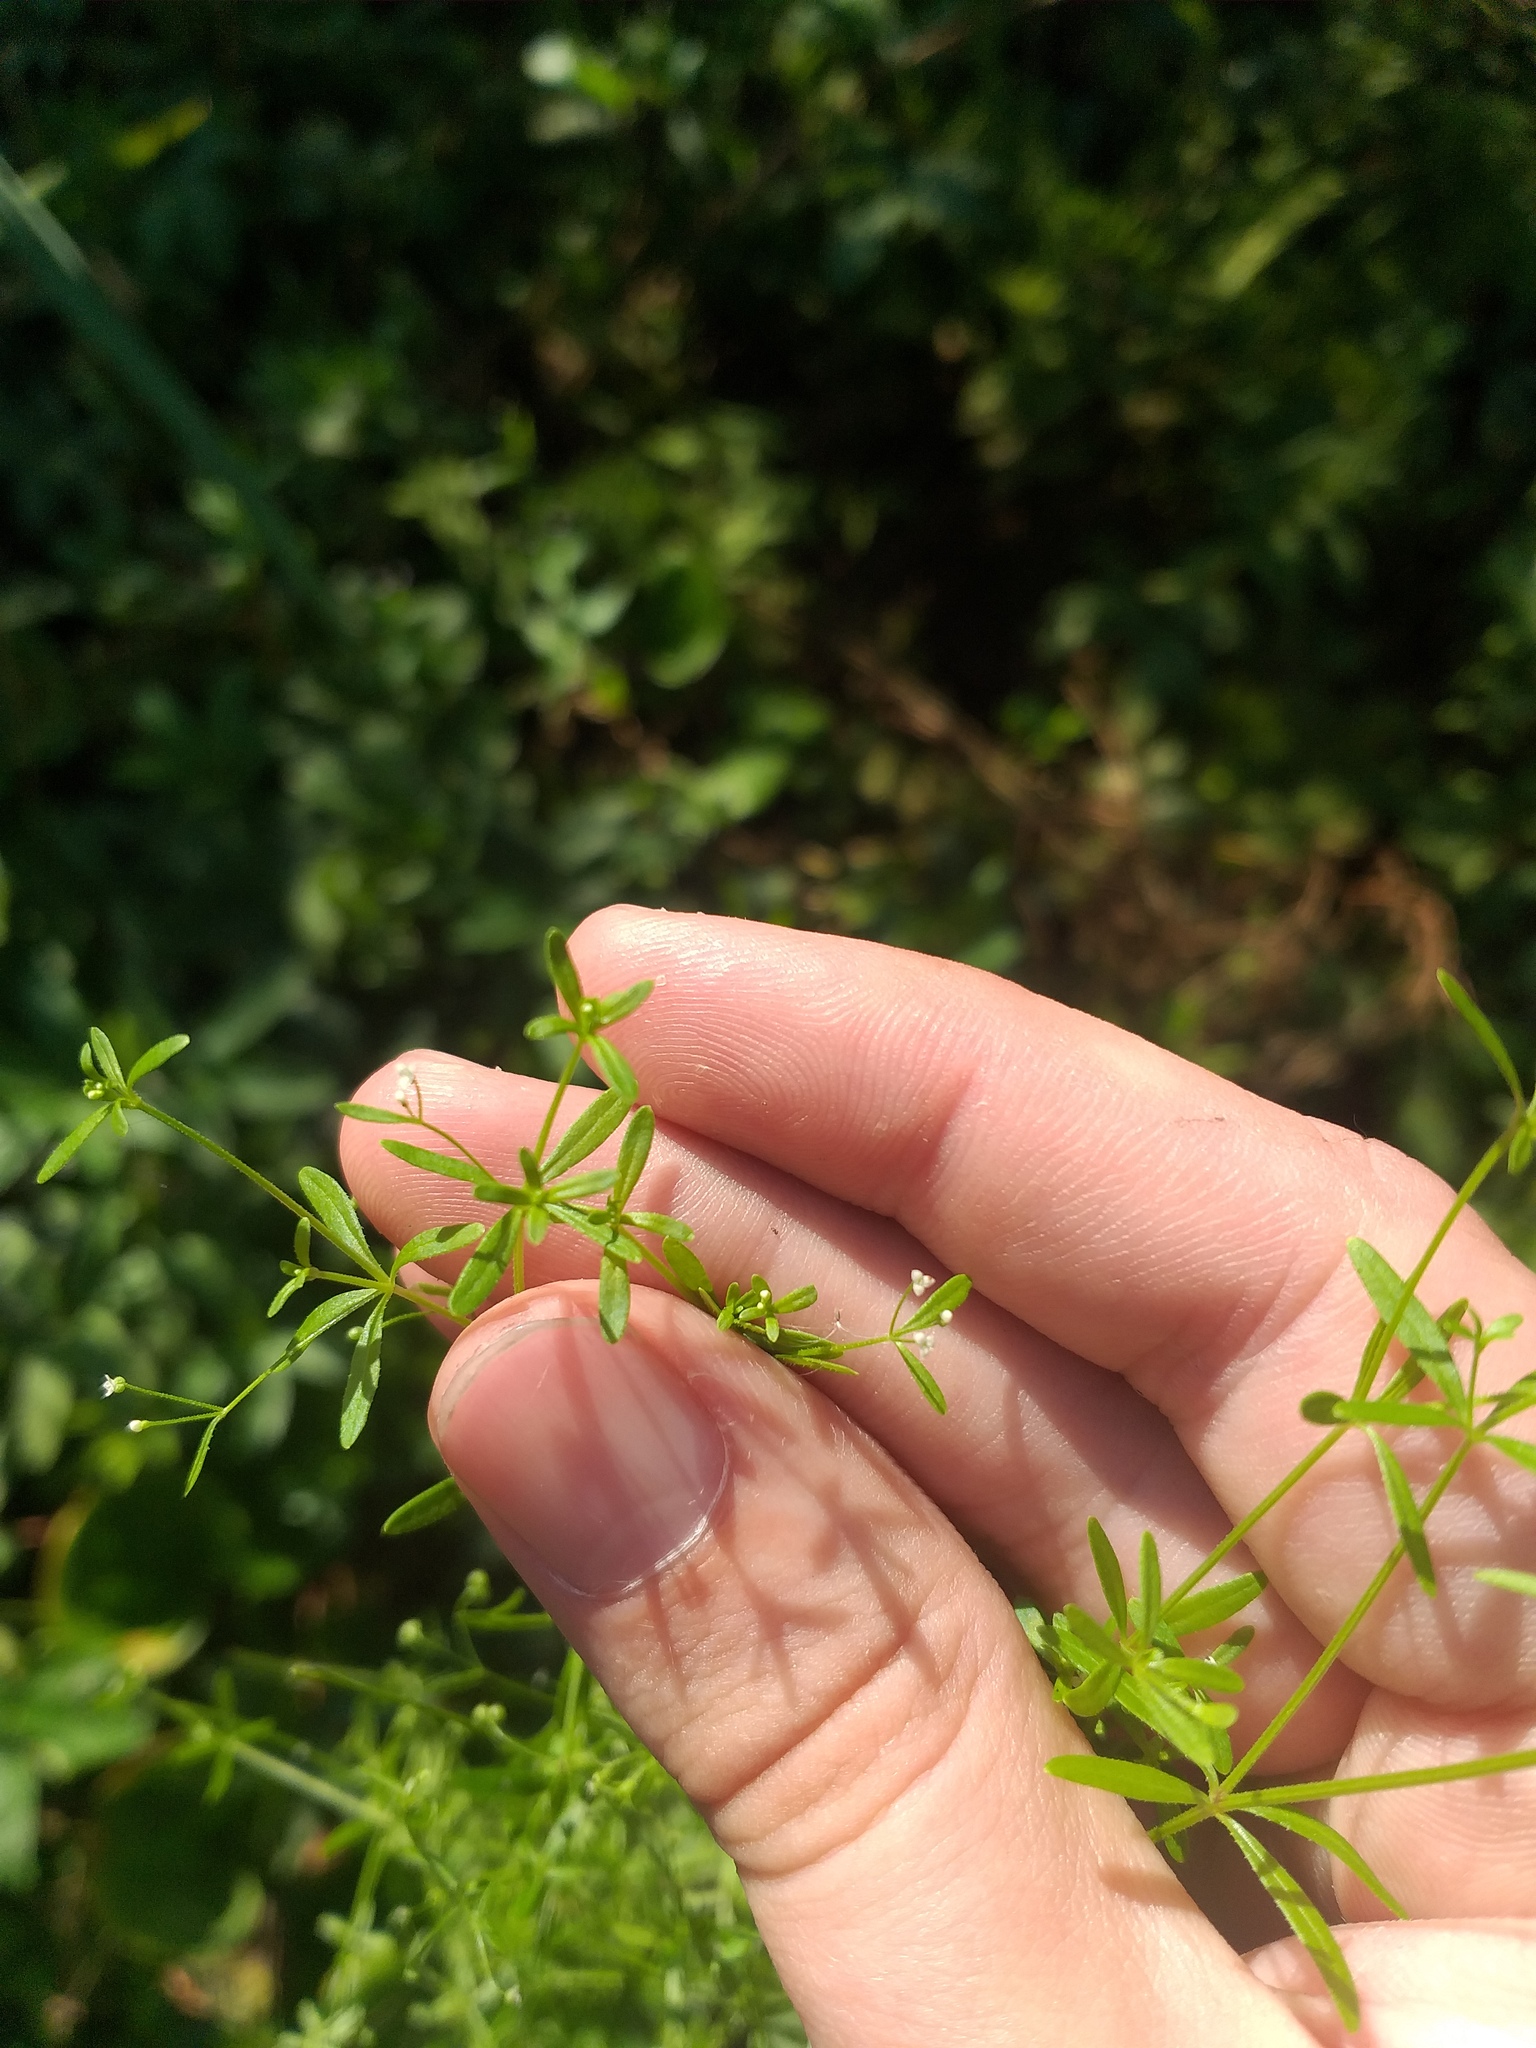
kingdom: Plantae
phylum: Tracheophyta
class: Magnoliopsida
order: Gentianales
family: Rubiaceae
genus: Galium
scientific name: Galium trifidum
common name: Small bedstraw
